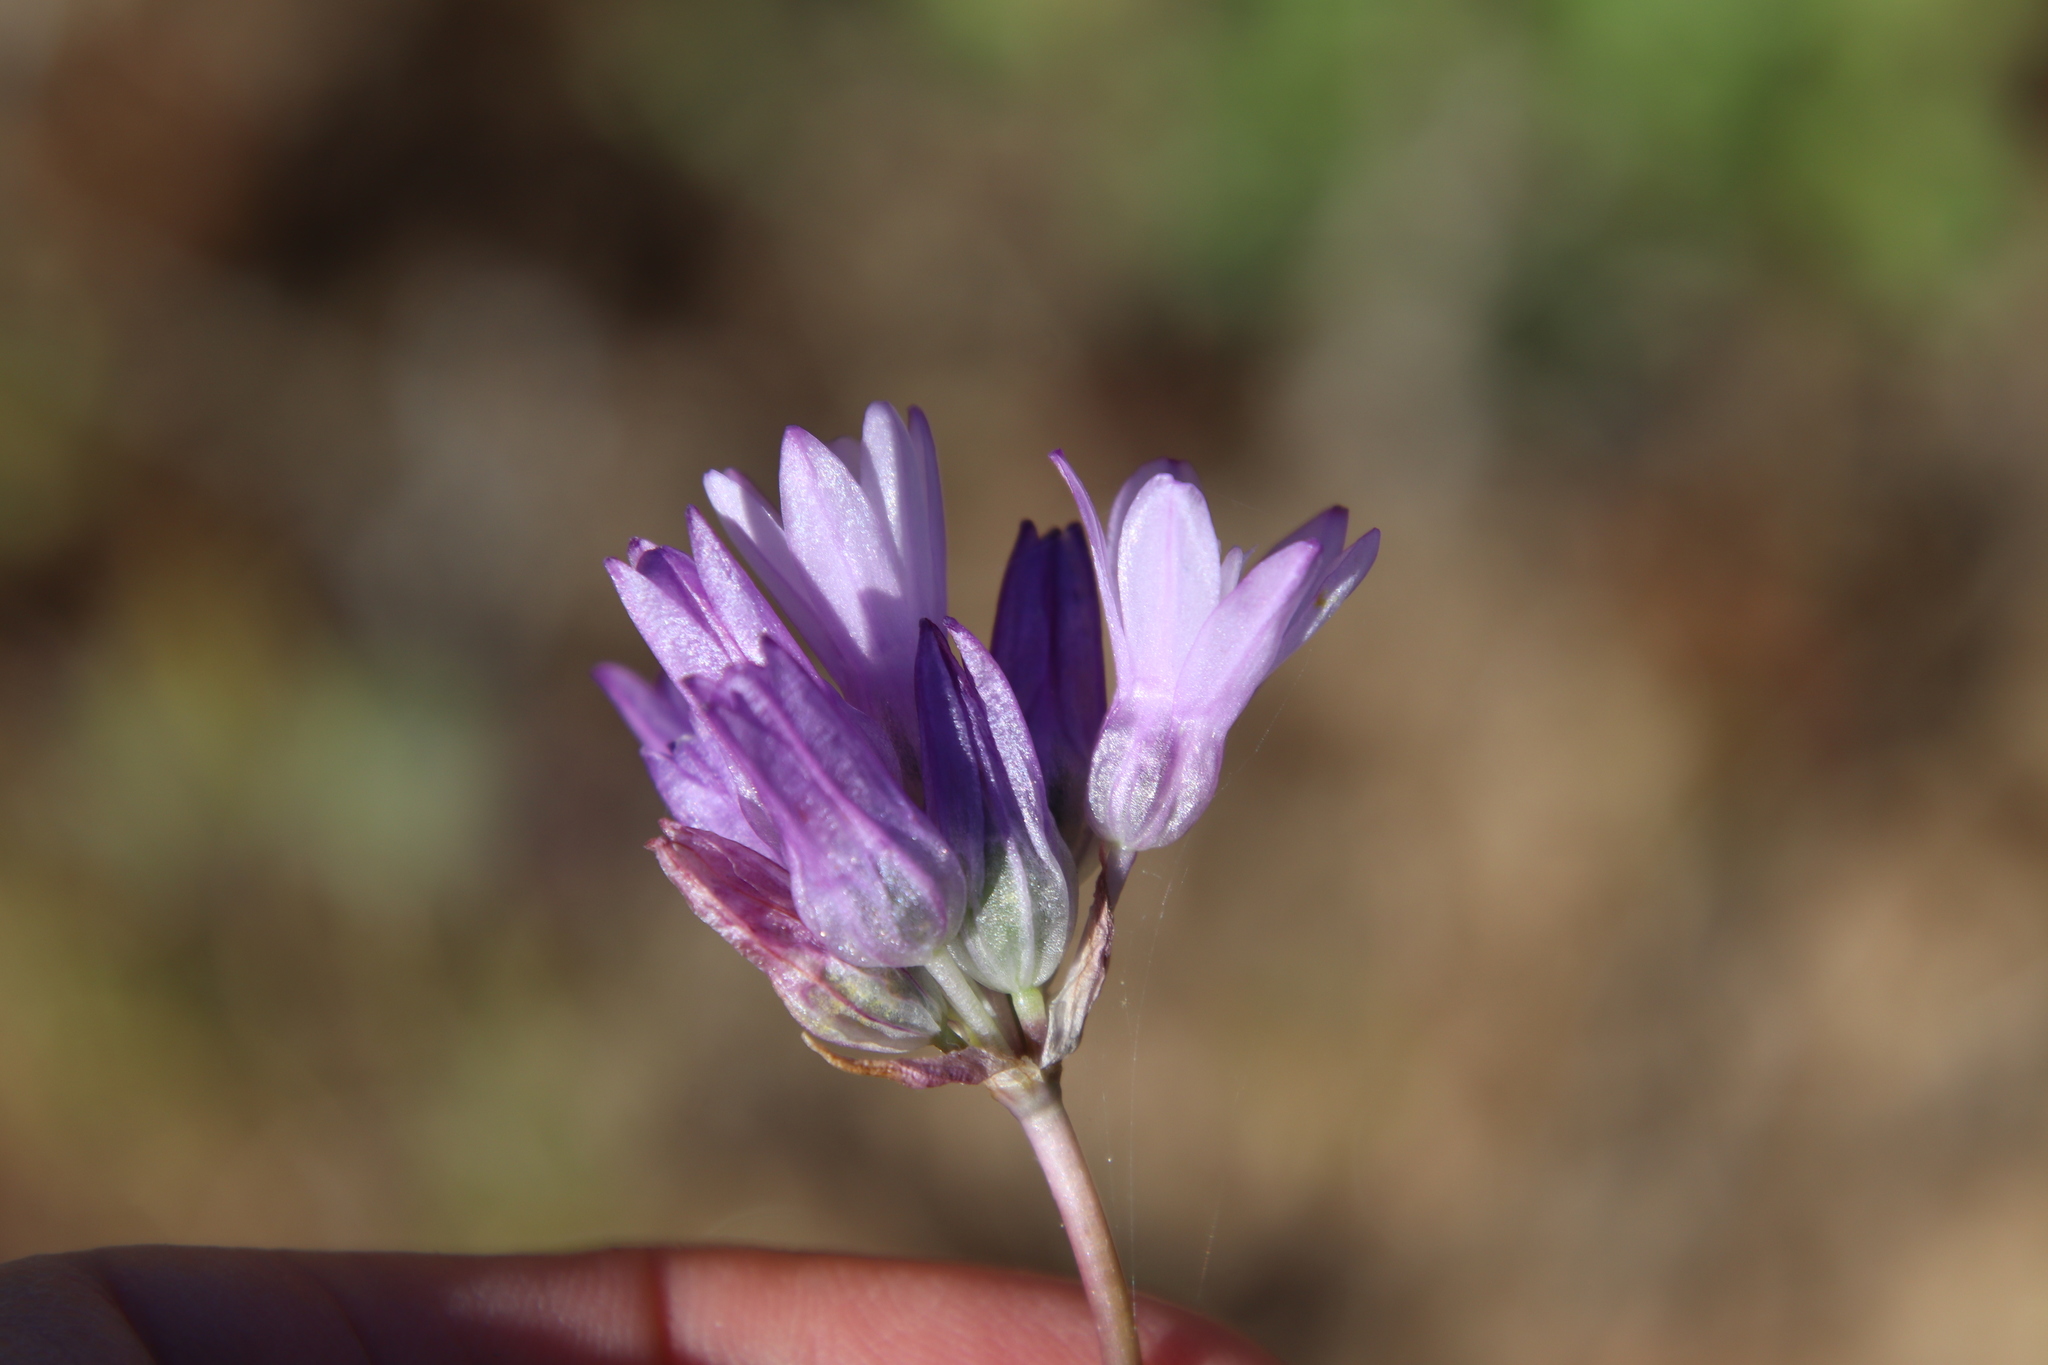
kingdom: Plantae
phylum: Tracheophyta
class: Liliopsida
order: Asparagales
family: Asparagaceae
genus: Dipterostemon
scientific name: Dipterostemon capitatus
